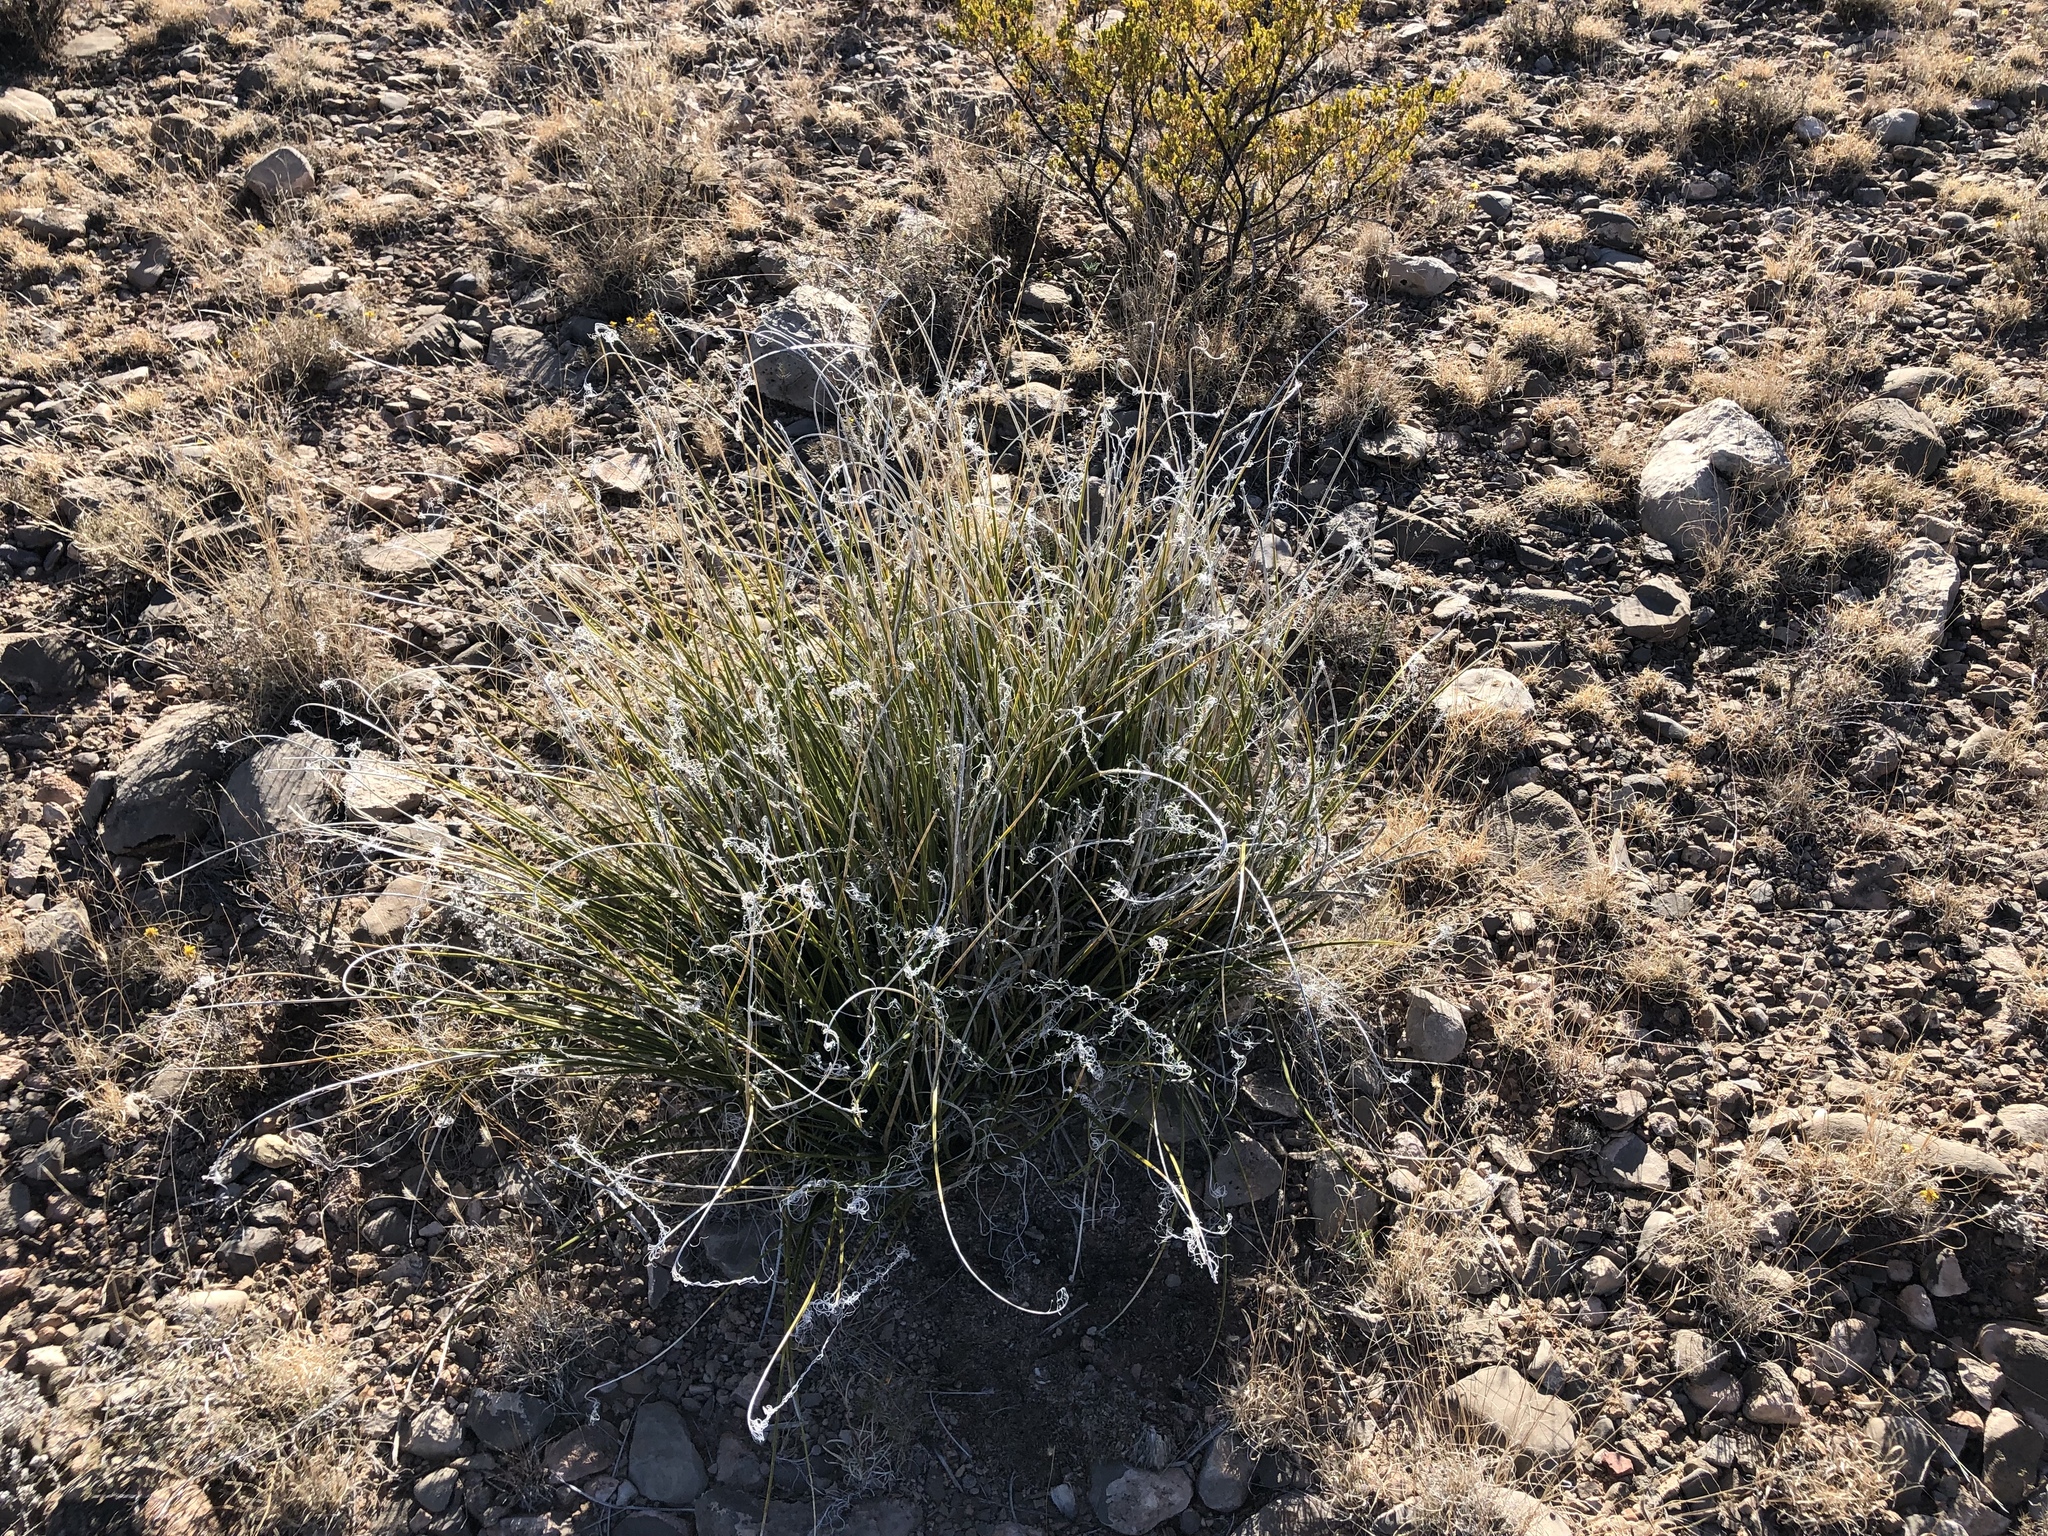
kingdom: Plantae
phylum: Tracheophyta
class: Liliopsida
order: Asparagales
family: Asparagaceae
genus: Nolina
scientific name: Nolina texana
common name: Texas sacahuiste
